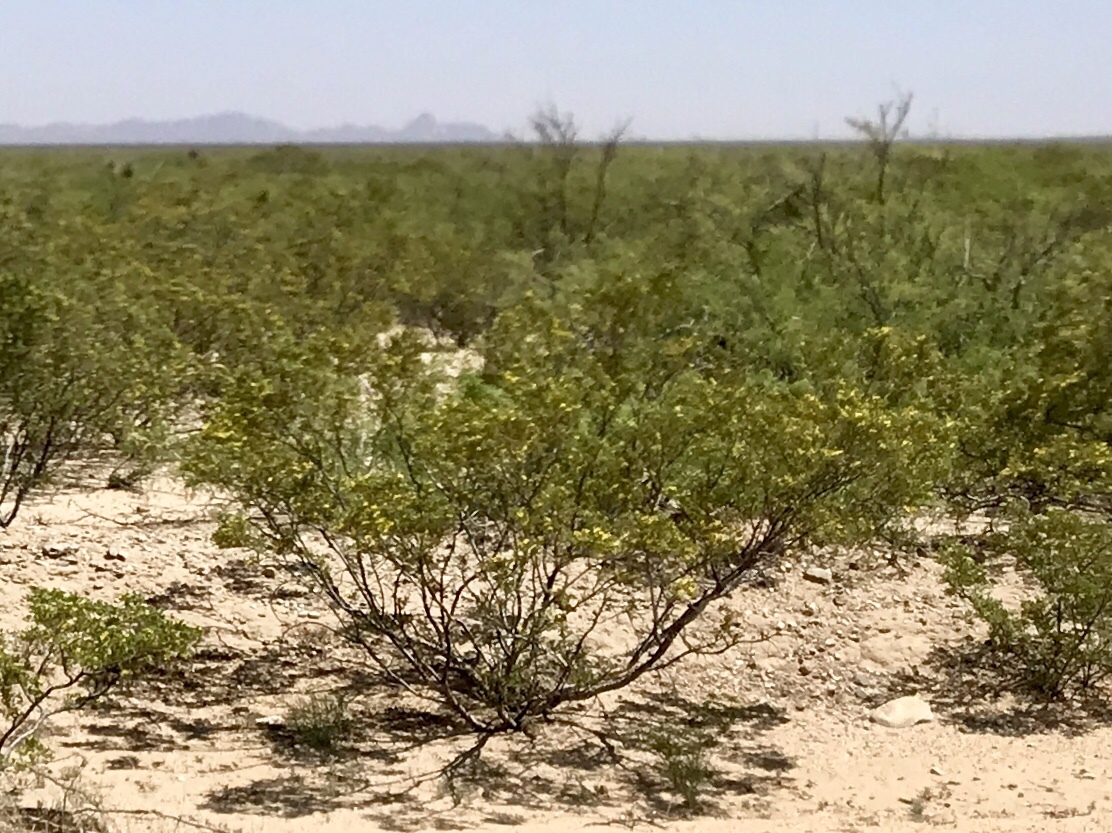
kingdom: Plantae
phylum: Tracheophyta
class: Magnoliopsida
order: Zygophyllales
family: Zygophyllaceae
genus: Larrea
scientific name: Larrea tridentata
